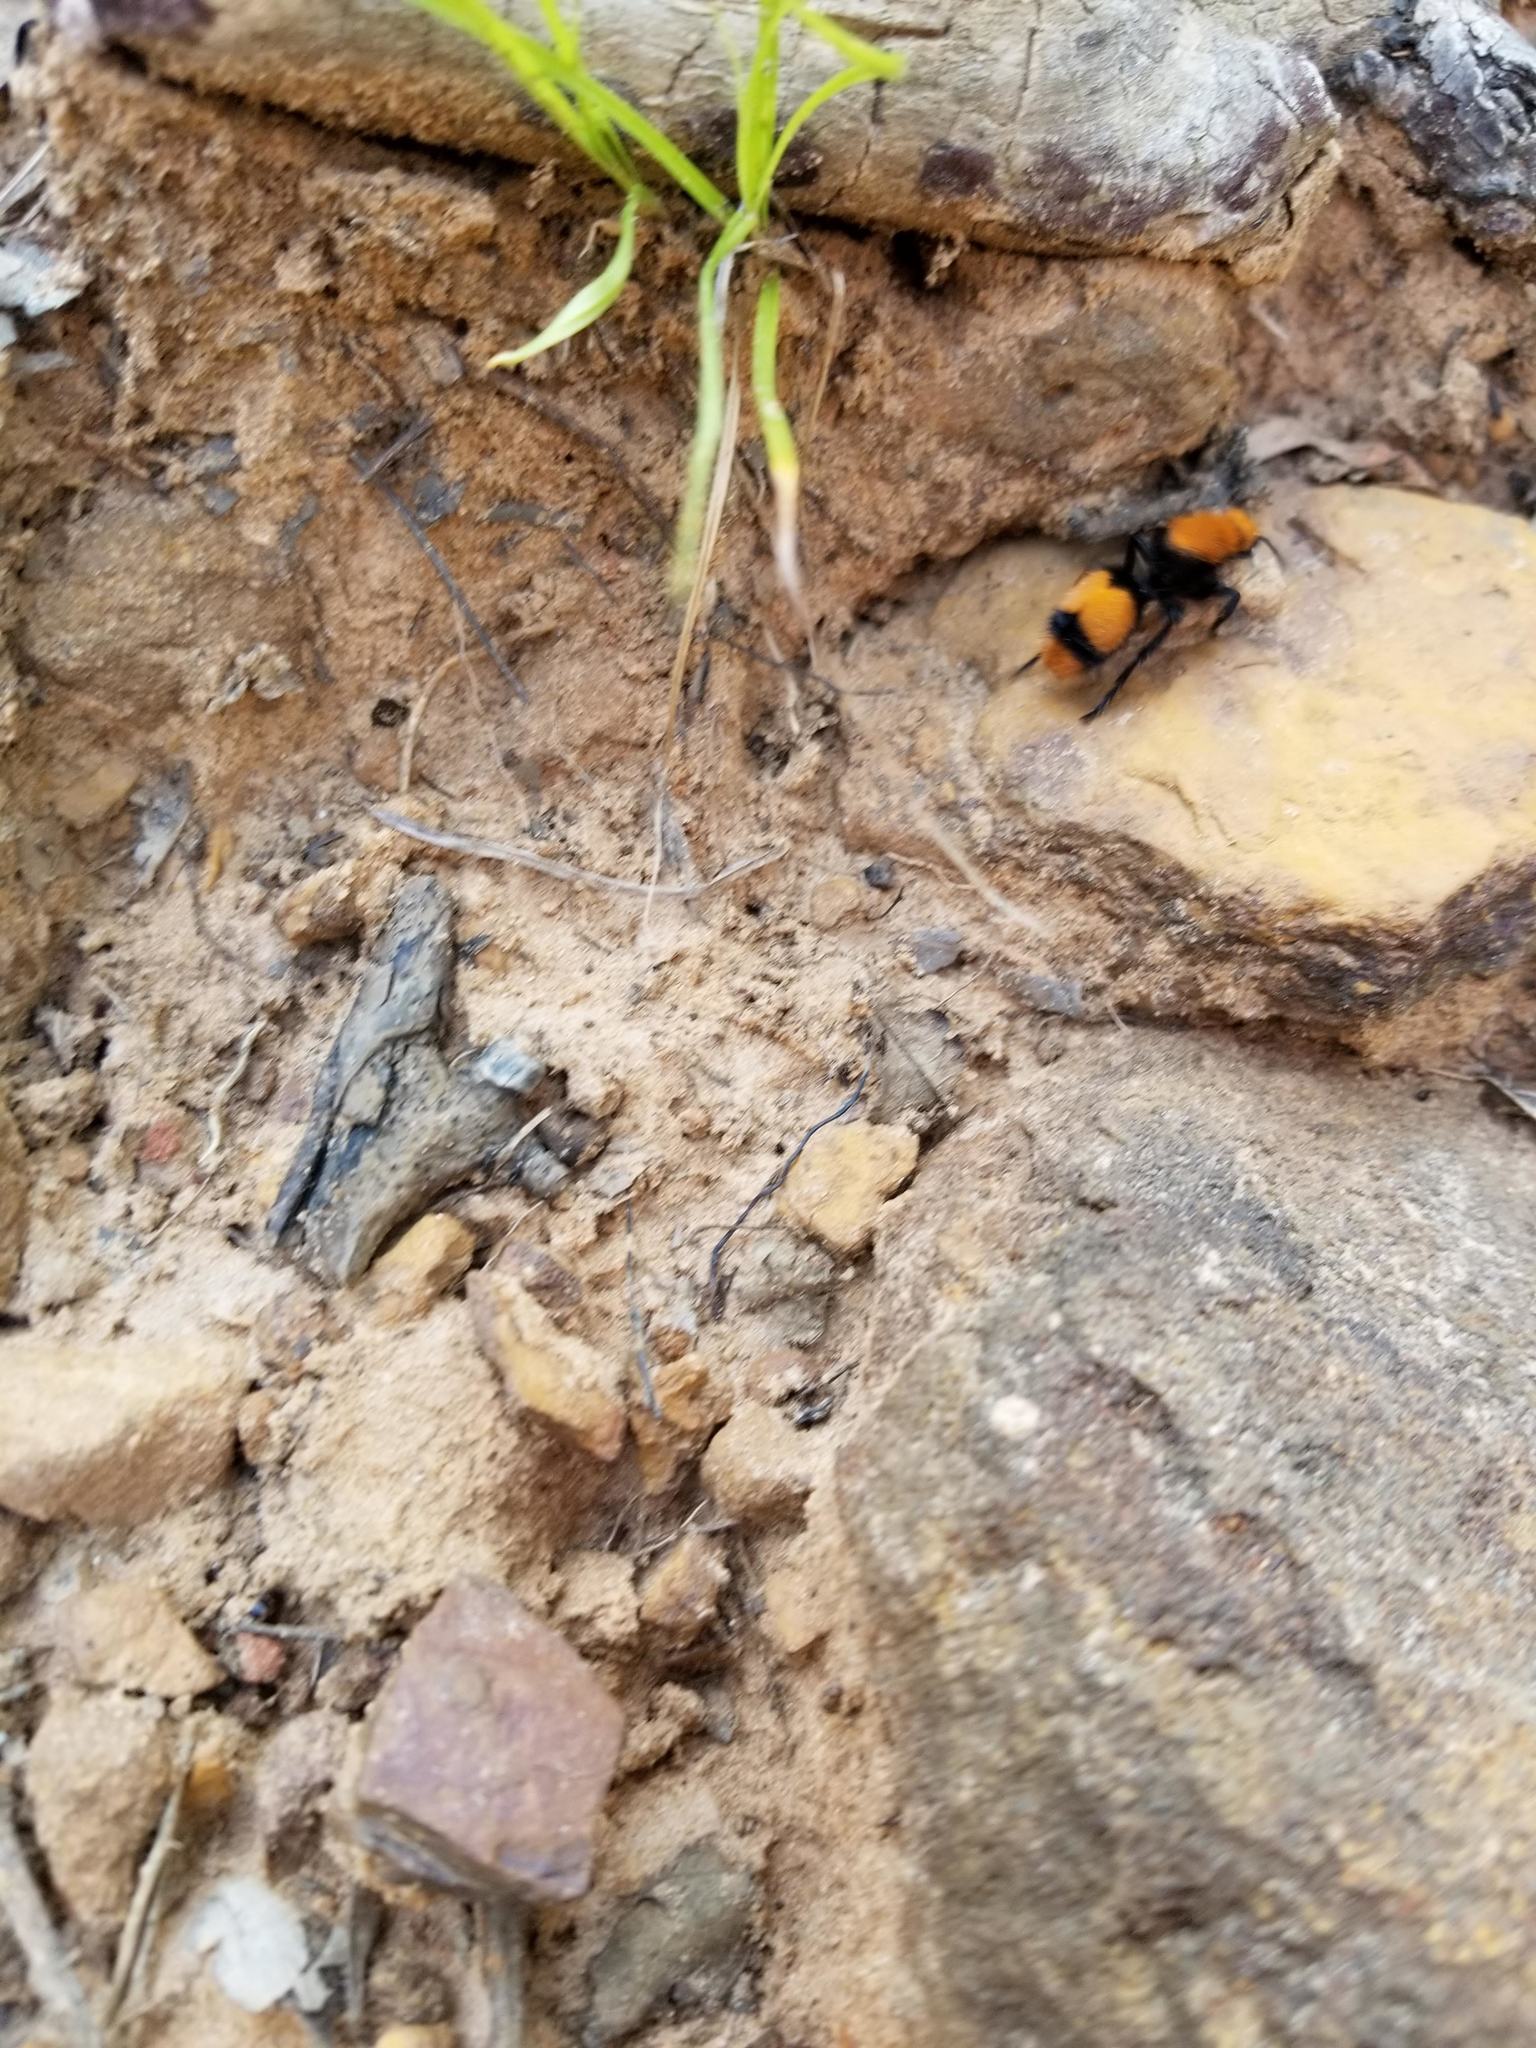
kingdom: Animalia
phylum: Arthropoda
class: Insecta
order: Hymenoptera
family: Mutillidae
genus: Dasymutilla
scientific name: Dasymutilla occidentalis
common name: Common eastern velvet ant
